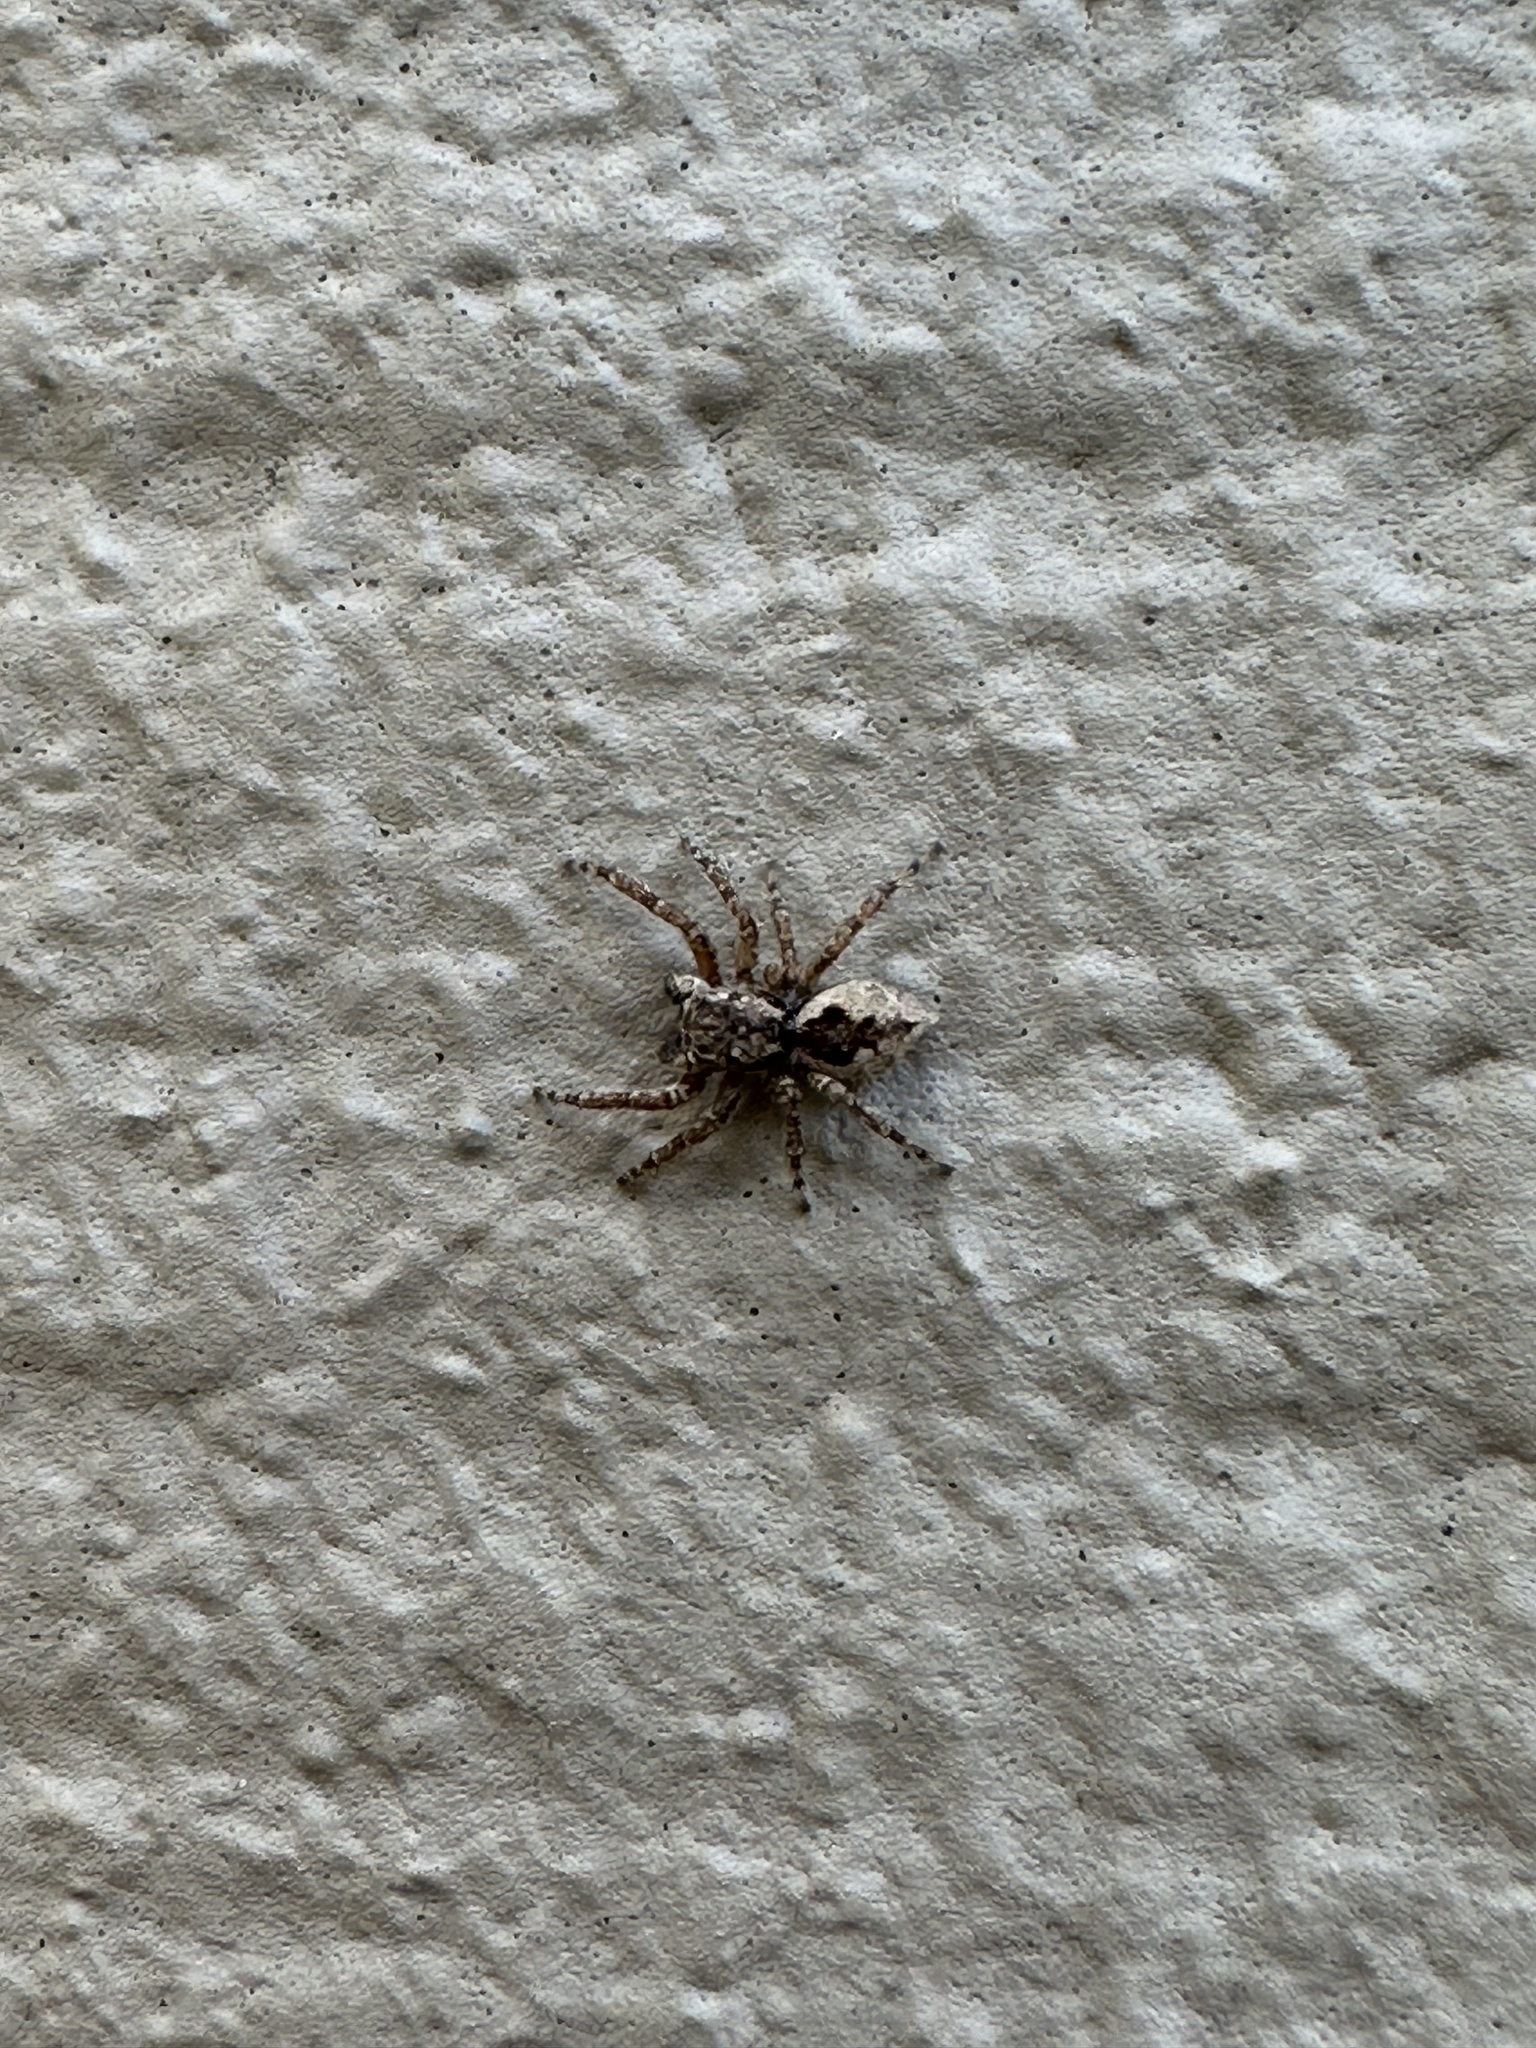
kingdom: Animalia
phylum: Arthropoda
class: Arachnida
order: Araneae
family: Salticidae
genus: Mexigonus
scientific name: Mexigonus minutus
